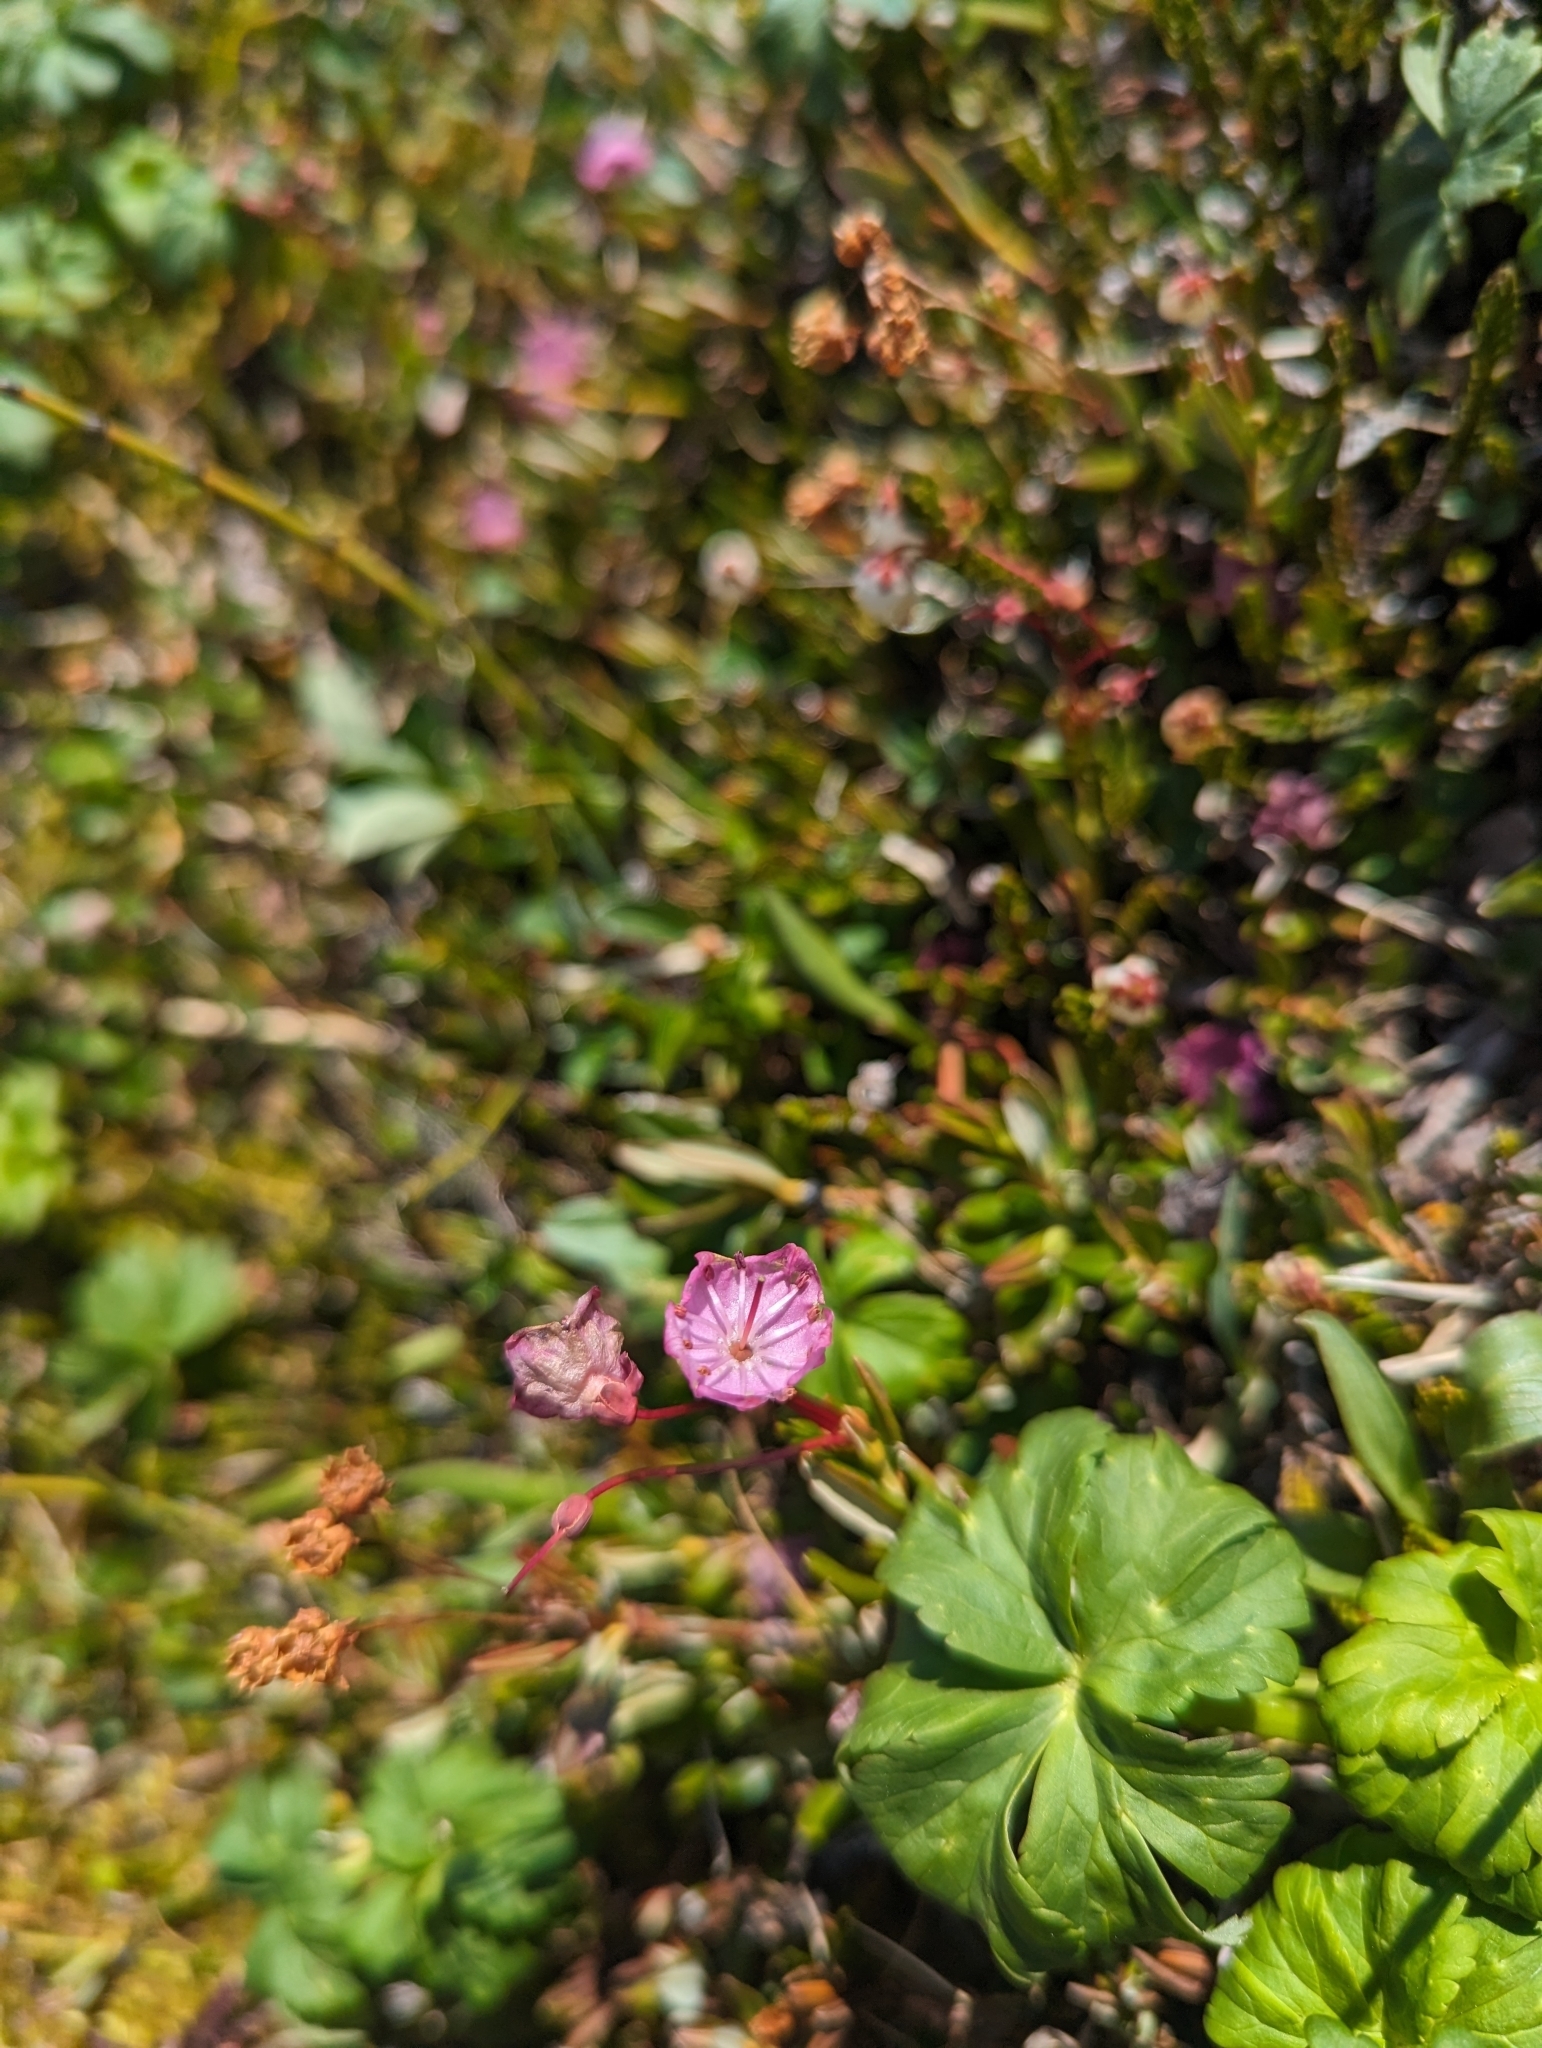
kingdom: Plantae
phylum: Tracheophyta
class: Magnoliopsida
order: Ericales
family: Ericaceae
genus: Kalmia
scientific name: Kalmia microphylla
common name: Alpine bog laurel
